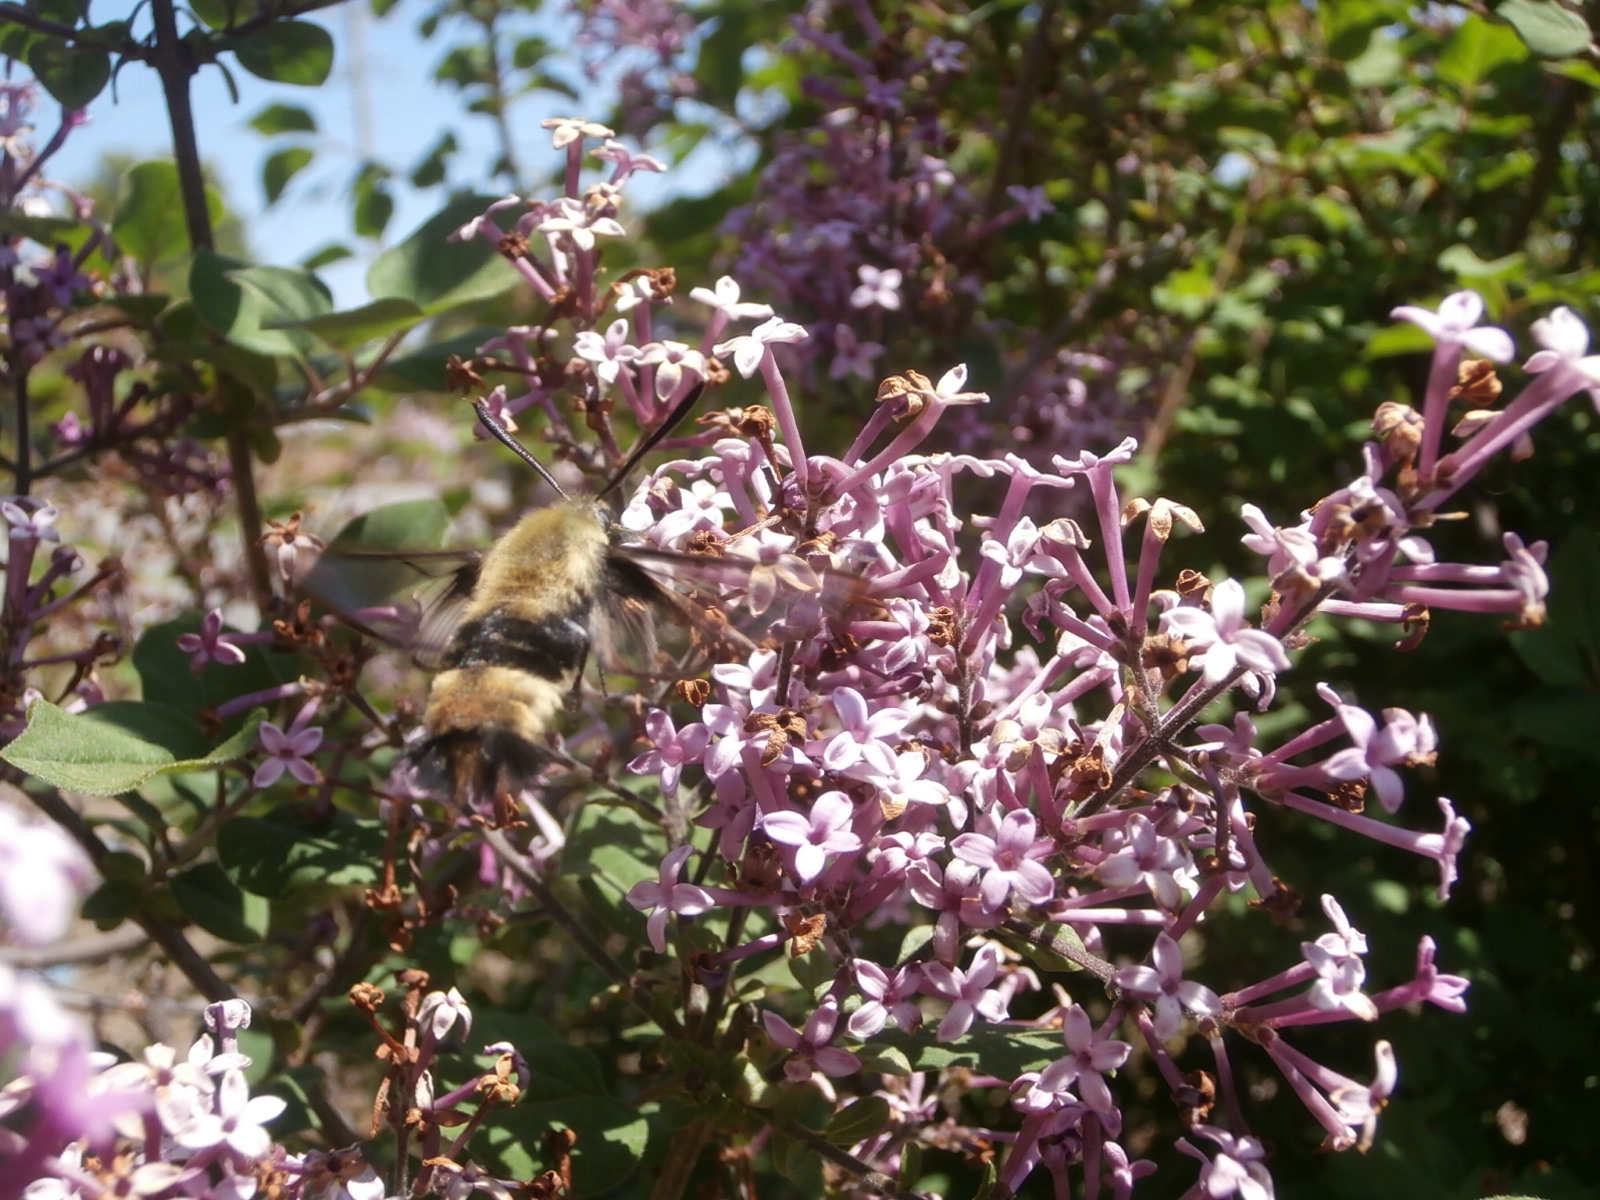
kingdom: Animalia
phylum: Arthropoda
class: Insecta
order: Lepidoptera
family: Sphingidae
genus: Hemaris
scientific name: Hemaris diffinis
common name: Bumblebee moth
